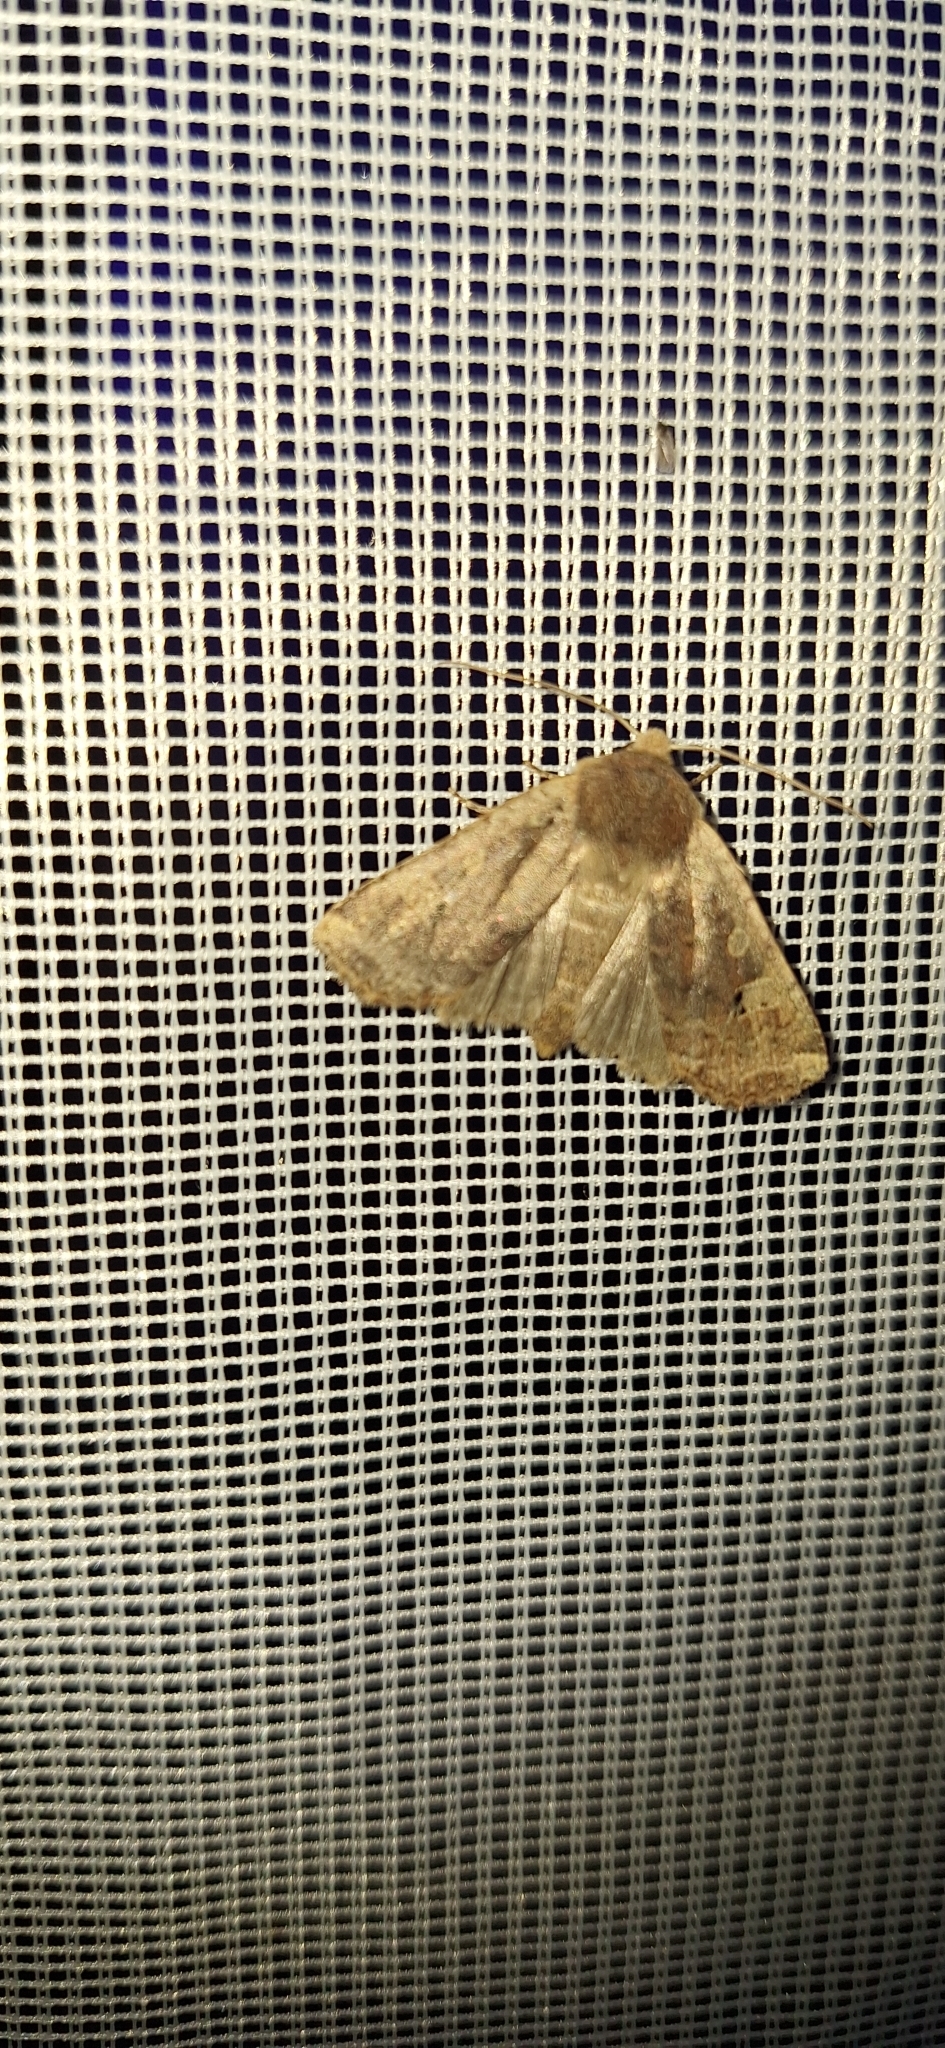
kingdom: Animalia
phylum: Arthropoda
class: Insecta
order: Lepidoptera
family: Noctuidae
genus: Conistra
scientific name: Conistra erythrocephala
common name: Red-headed chestnut
